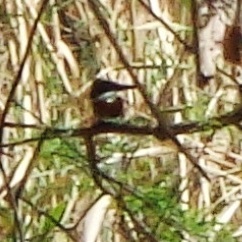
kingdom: Animalia
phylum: Chordata
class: Aves
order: Coraciiformes
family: Alcedinidae
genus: Chloroceryle
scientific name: Chloroceryle americana
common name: Green kingfisher
